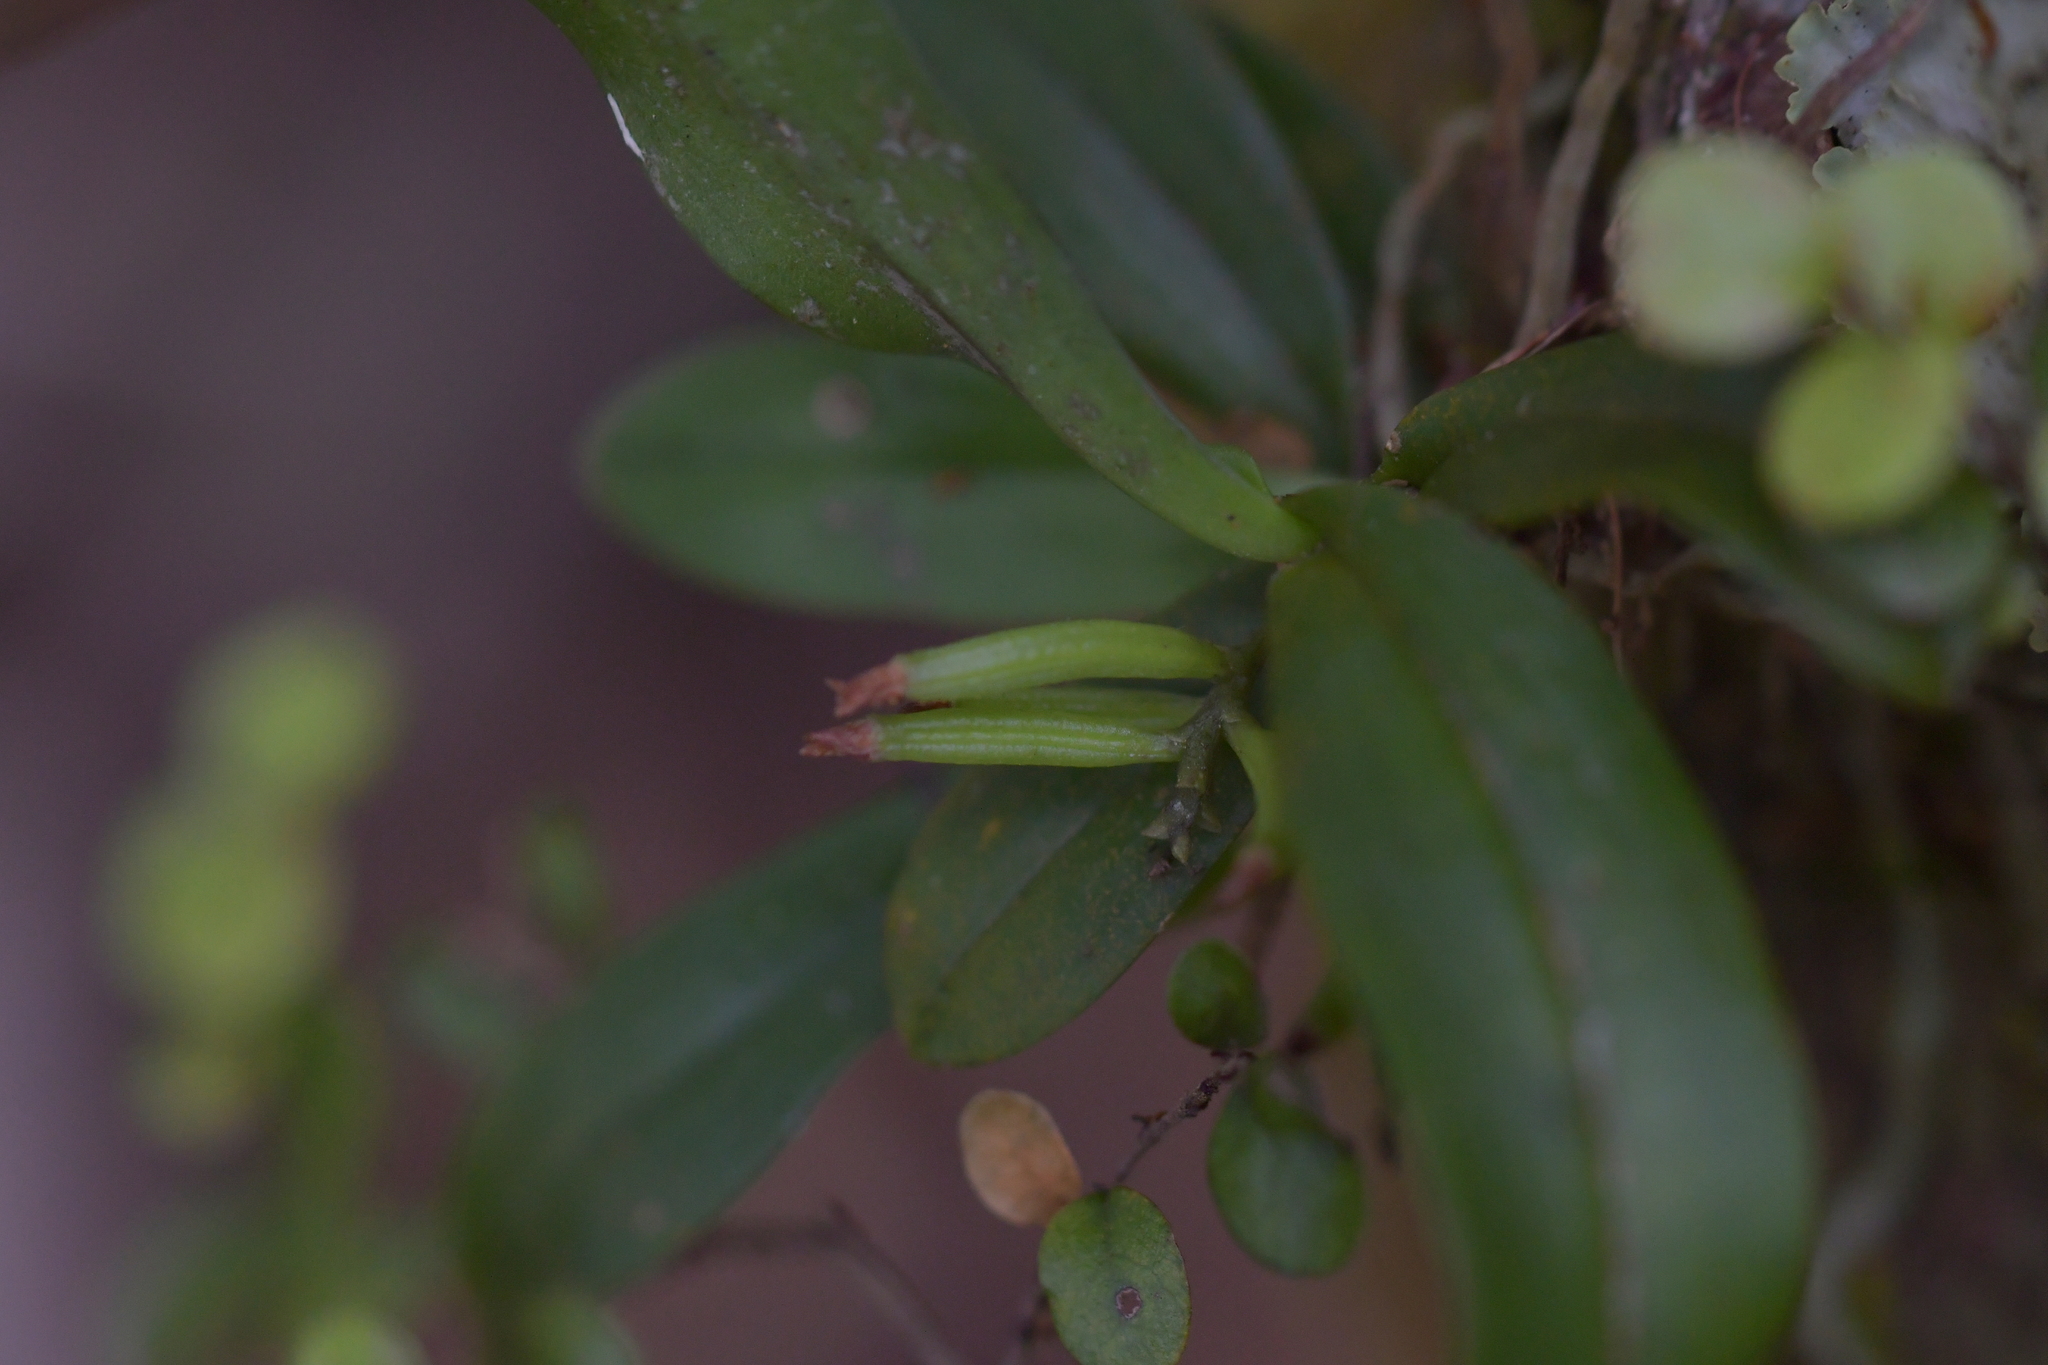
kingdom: Plantae
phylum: Tracheophyta
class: Liliopsida
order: Asparagales
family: Orchidaceae
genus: Drymoanthus
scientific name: Drymoanthus adversus
